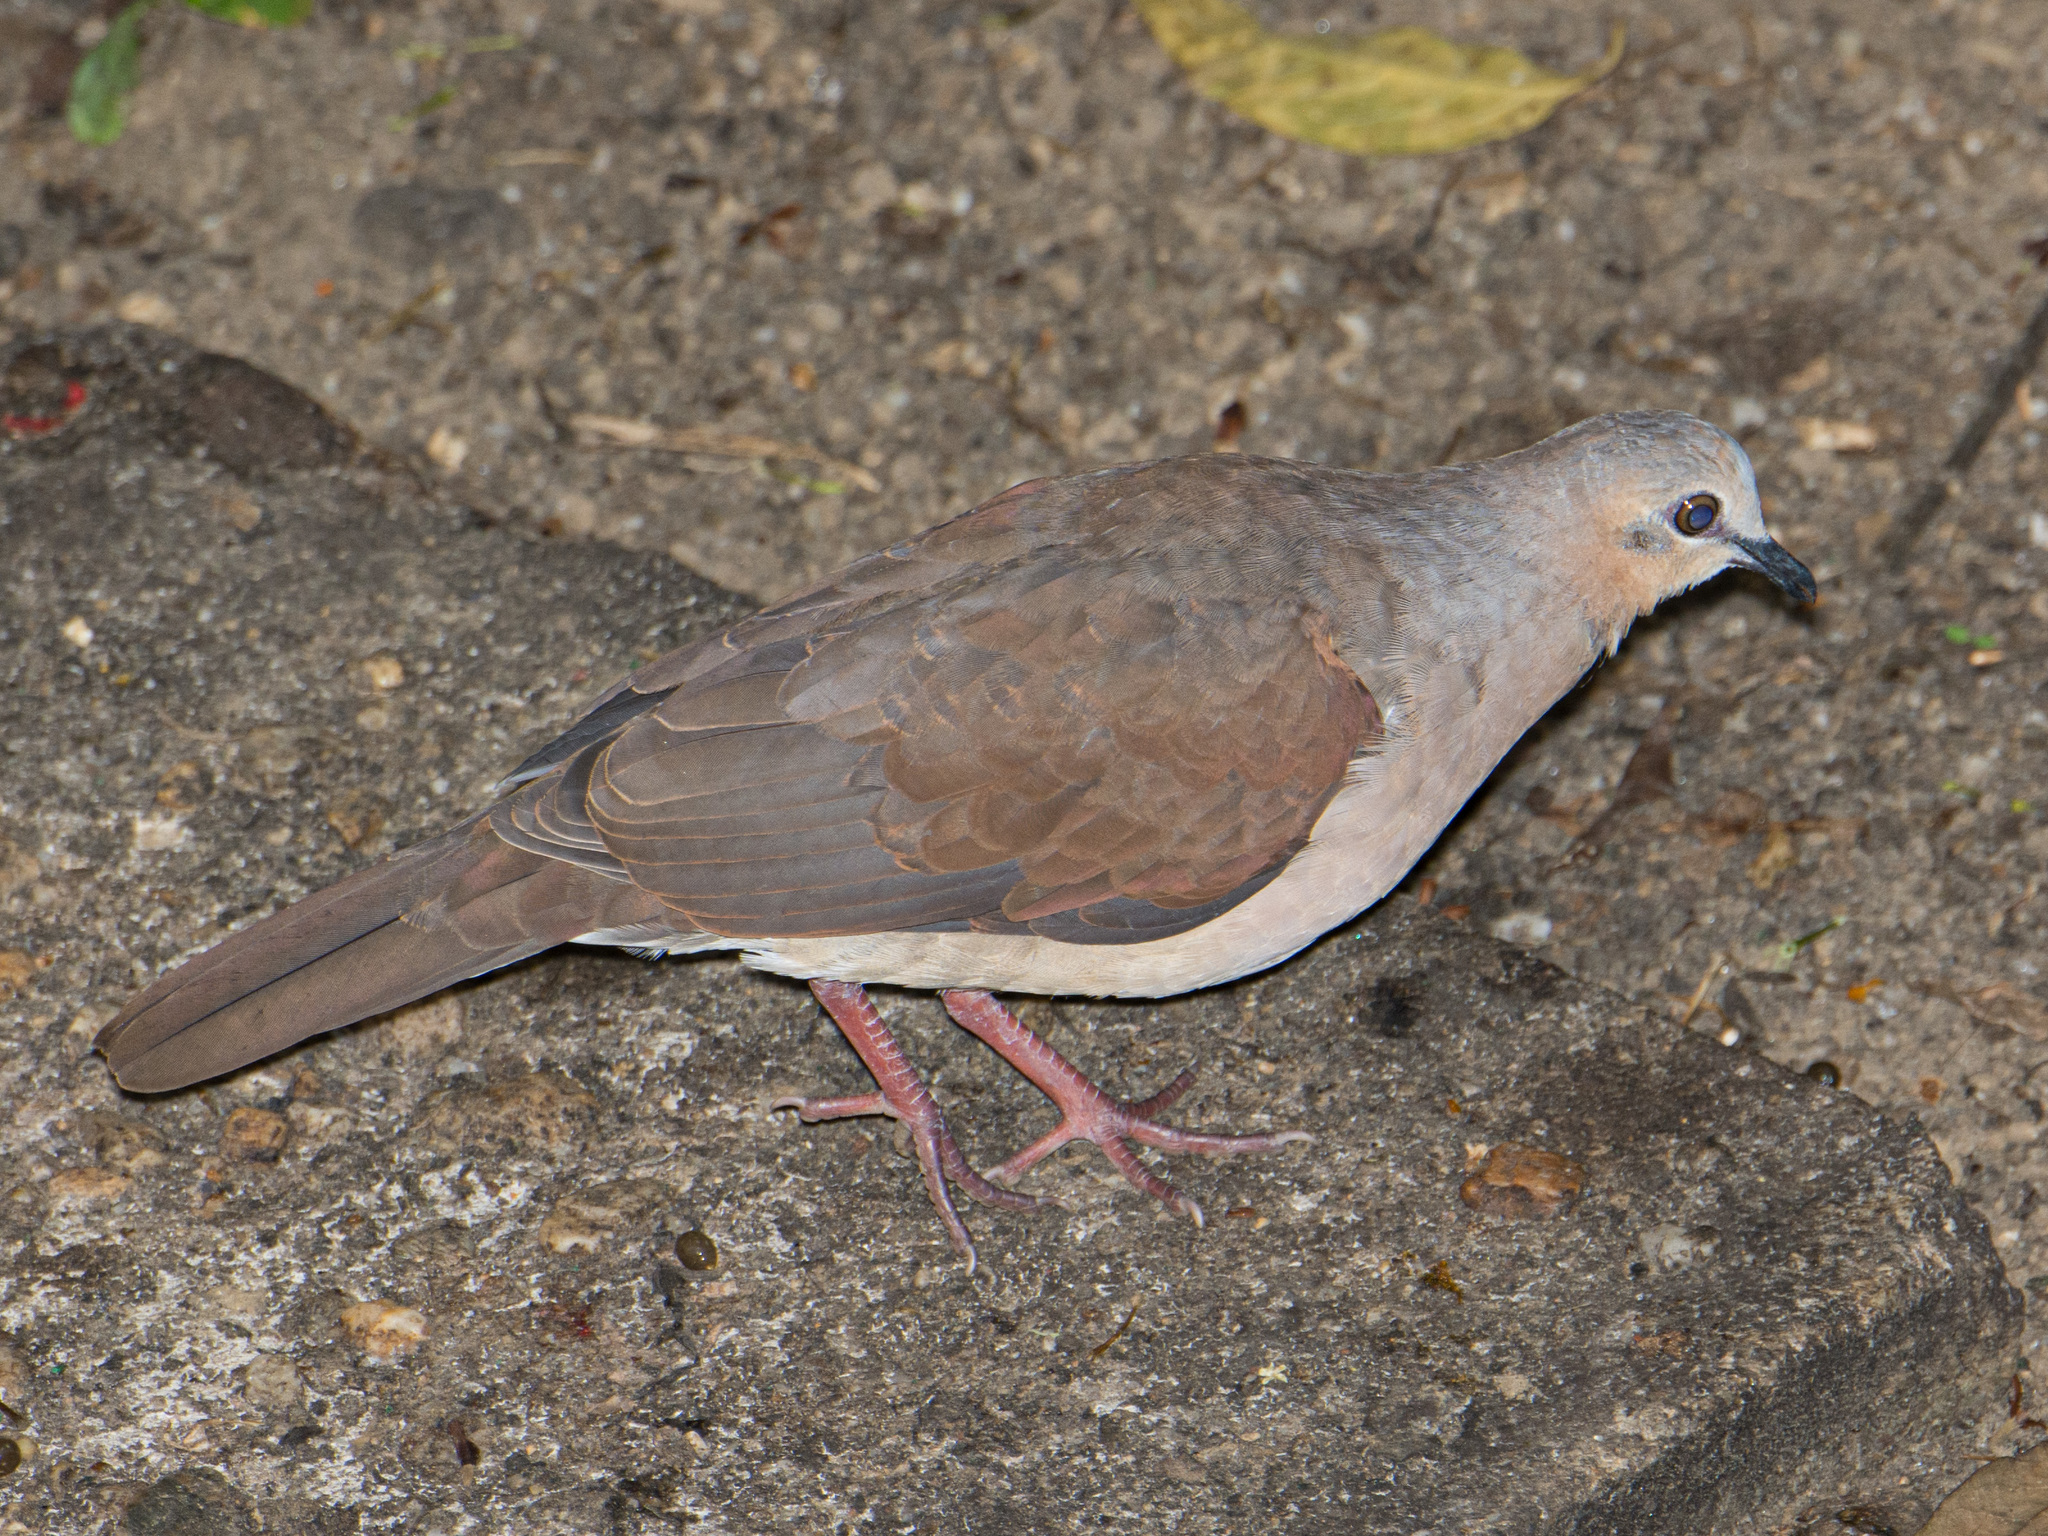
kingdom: Animalia
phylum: Chordata
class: Aves
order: Columbiformes
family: Columbidae
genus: Leptotila
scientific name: Leptotila verreauxi
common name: White-tipped dove
